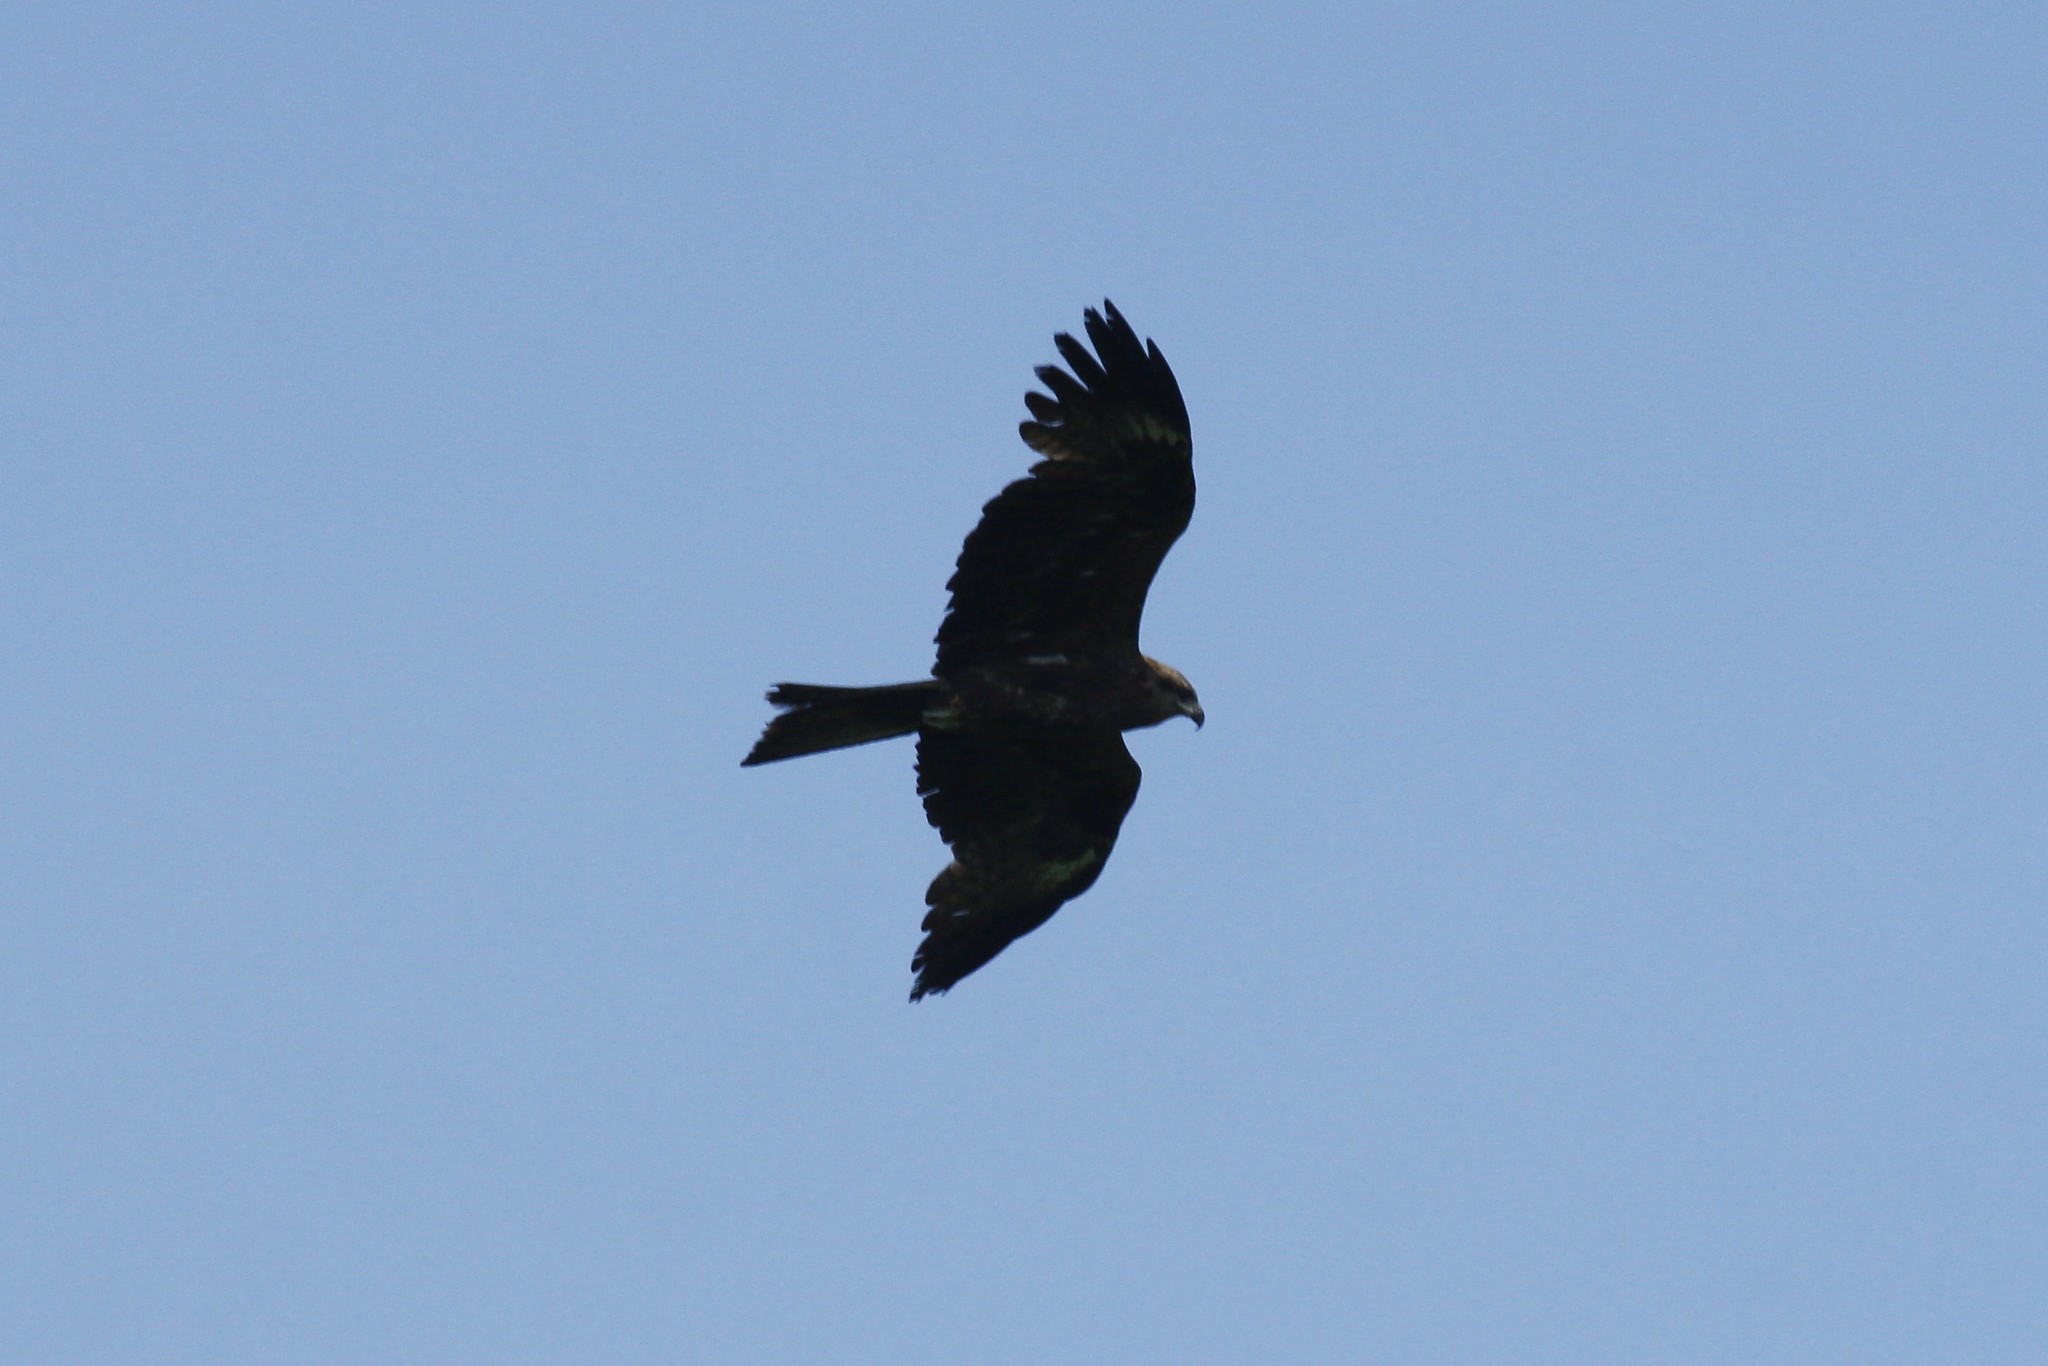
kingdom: Animalia
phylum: Chordata
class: Aves
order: Accipitriformes
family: Accipitridae
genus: Milvus
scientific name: Milvus migrans
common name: Black kite
